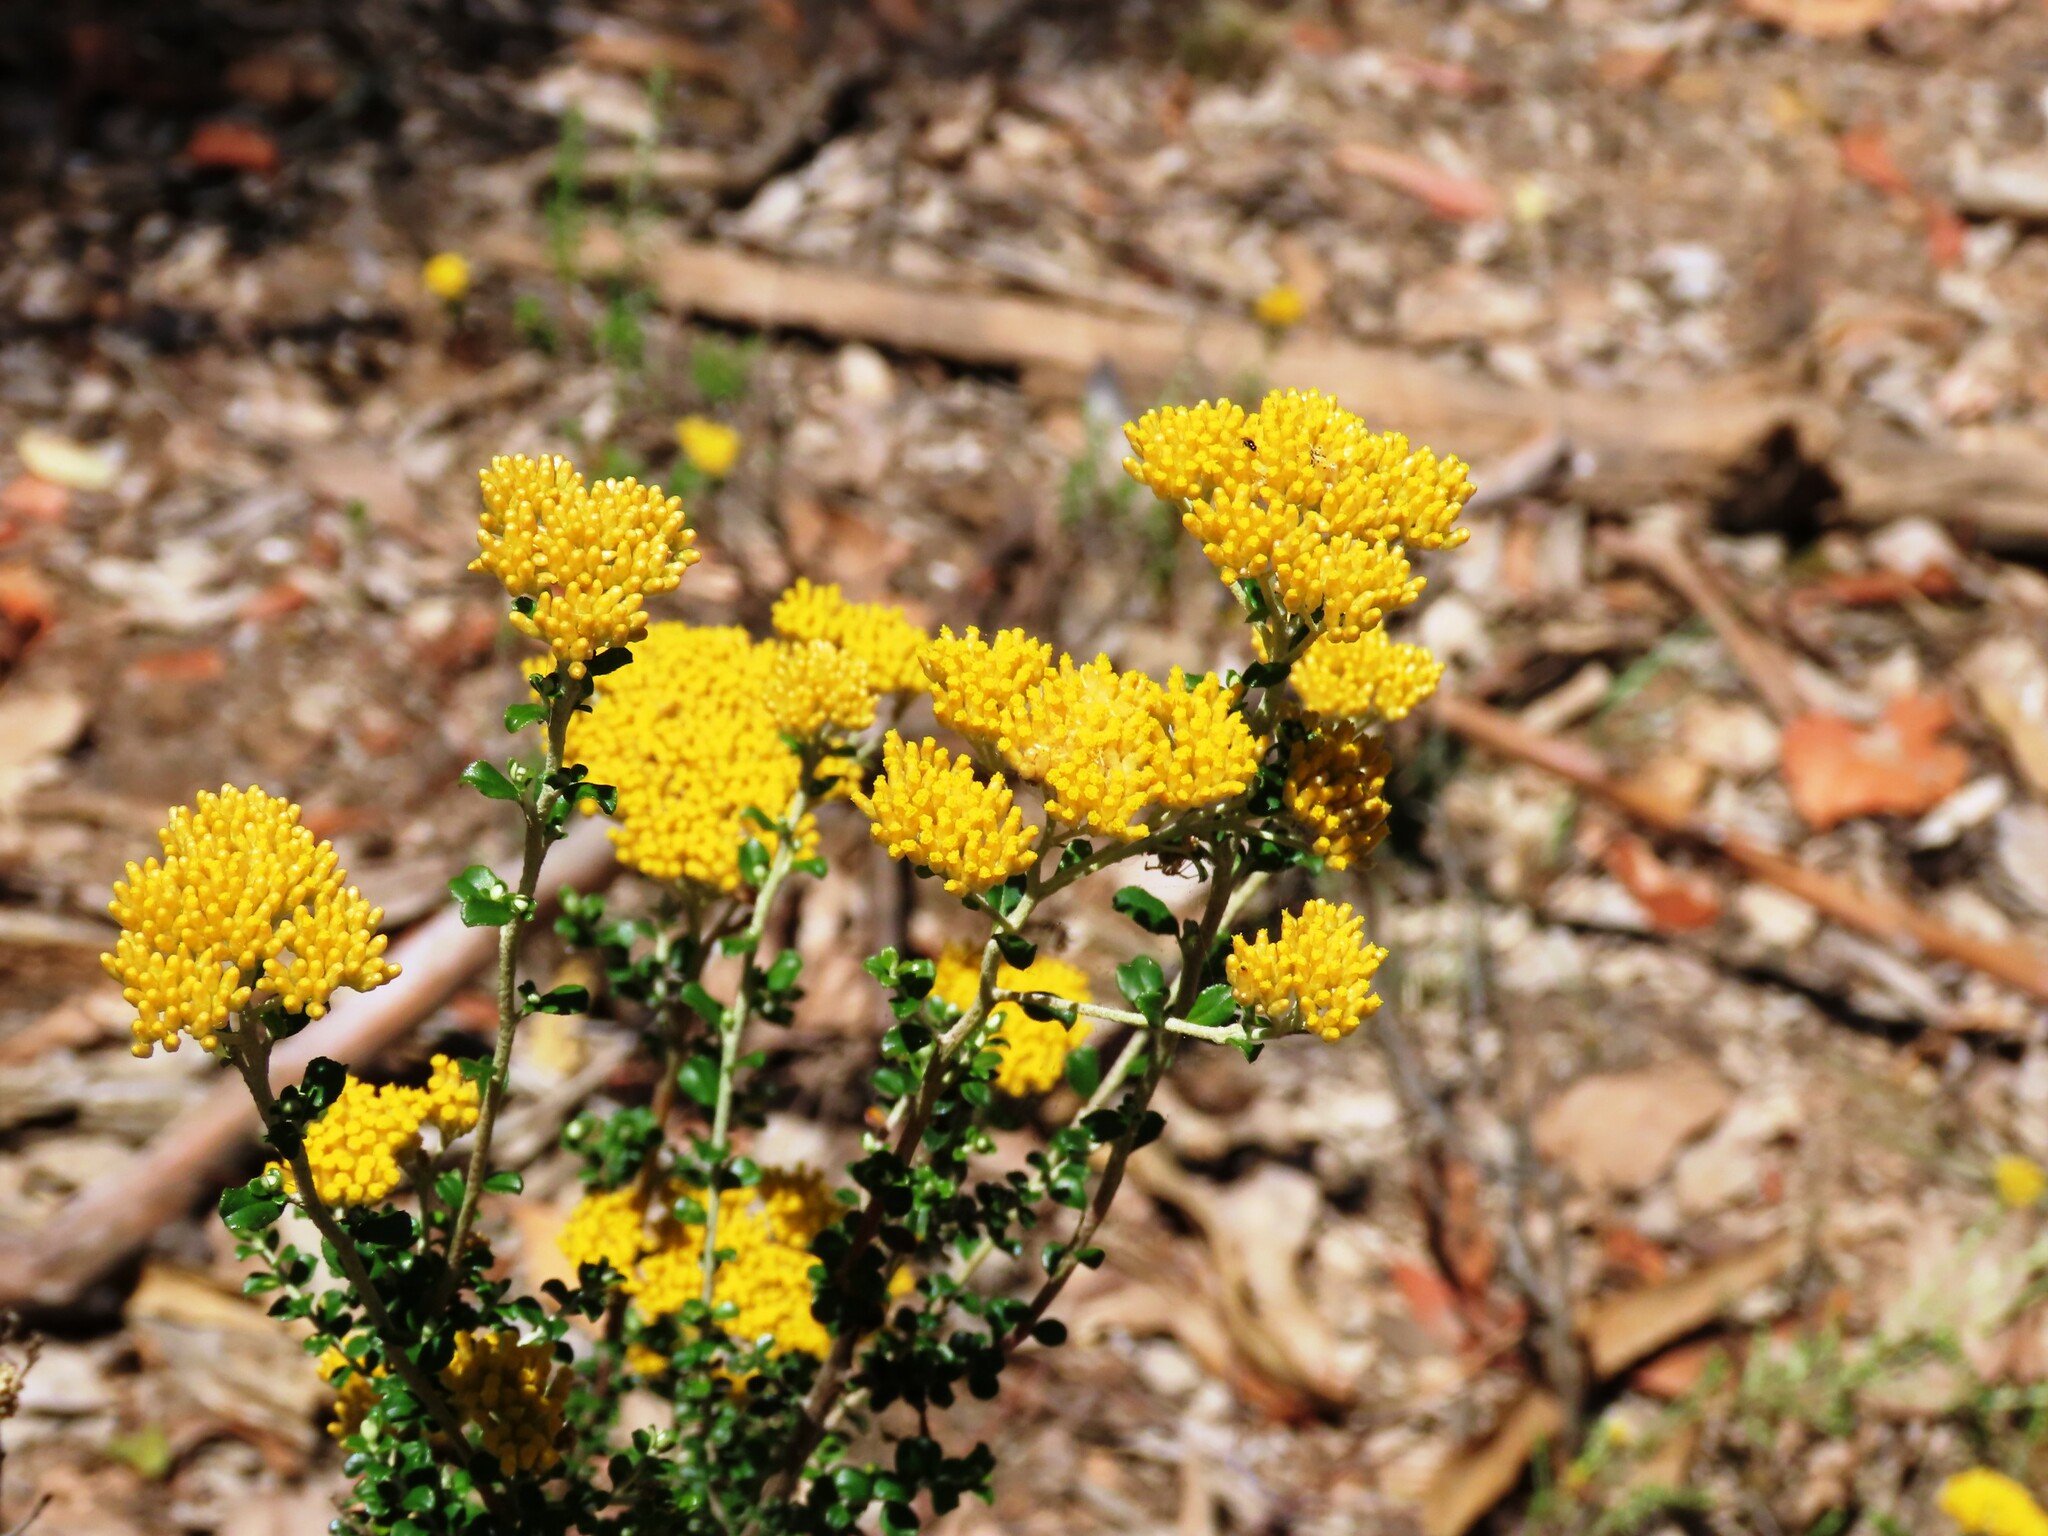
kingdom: Plantae
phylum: Tracheophyta
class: Magnoliopsida
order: Asterales
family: Asteraceae
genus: Ozothamnus
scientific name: Ozothamnus obcordatus
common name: Grey everlasting
